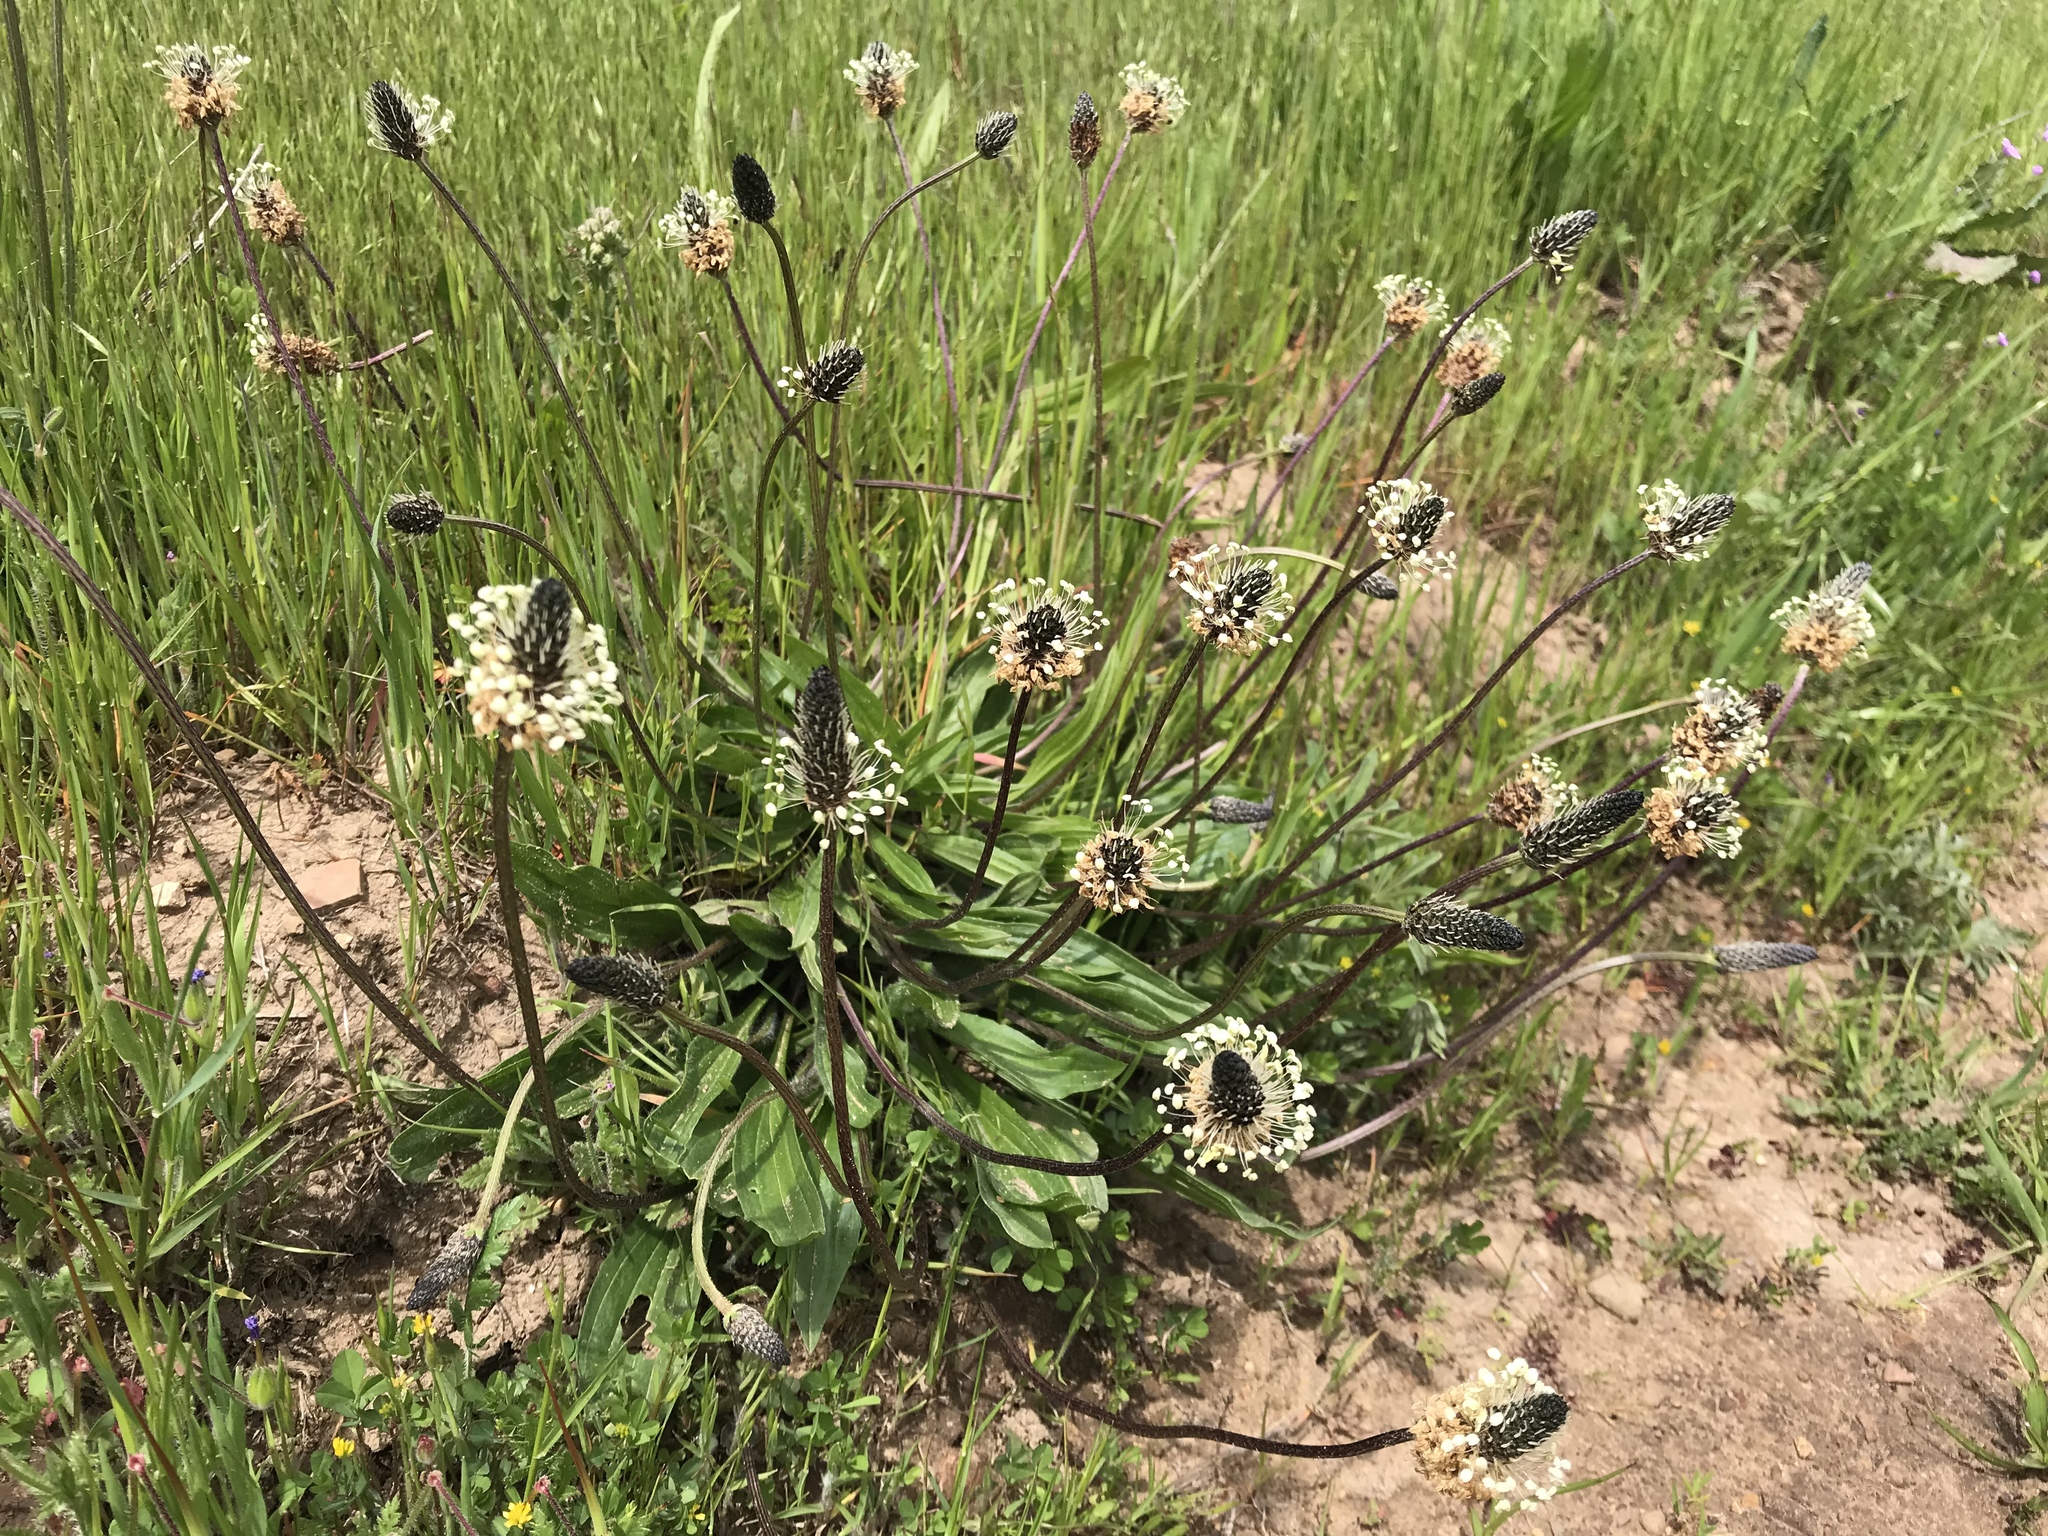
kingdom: Plantae
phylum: Tracheophyta
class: Magnoliopsida
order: Lamiales
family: Plantaginaceae
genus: Plantago
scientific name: Plantago lanceolata
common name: Ribwort plantain
